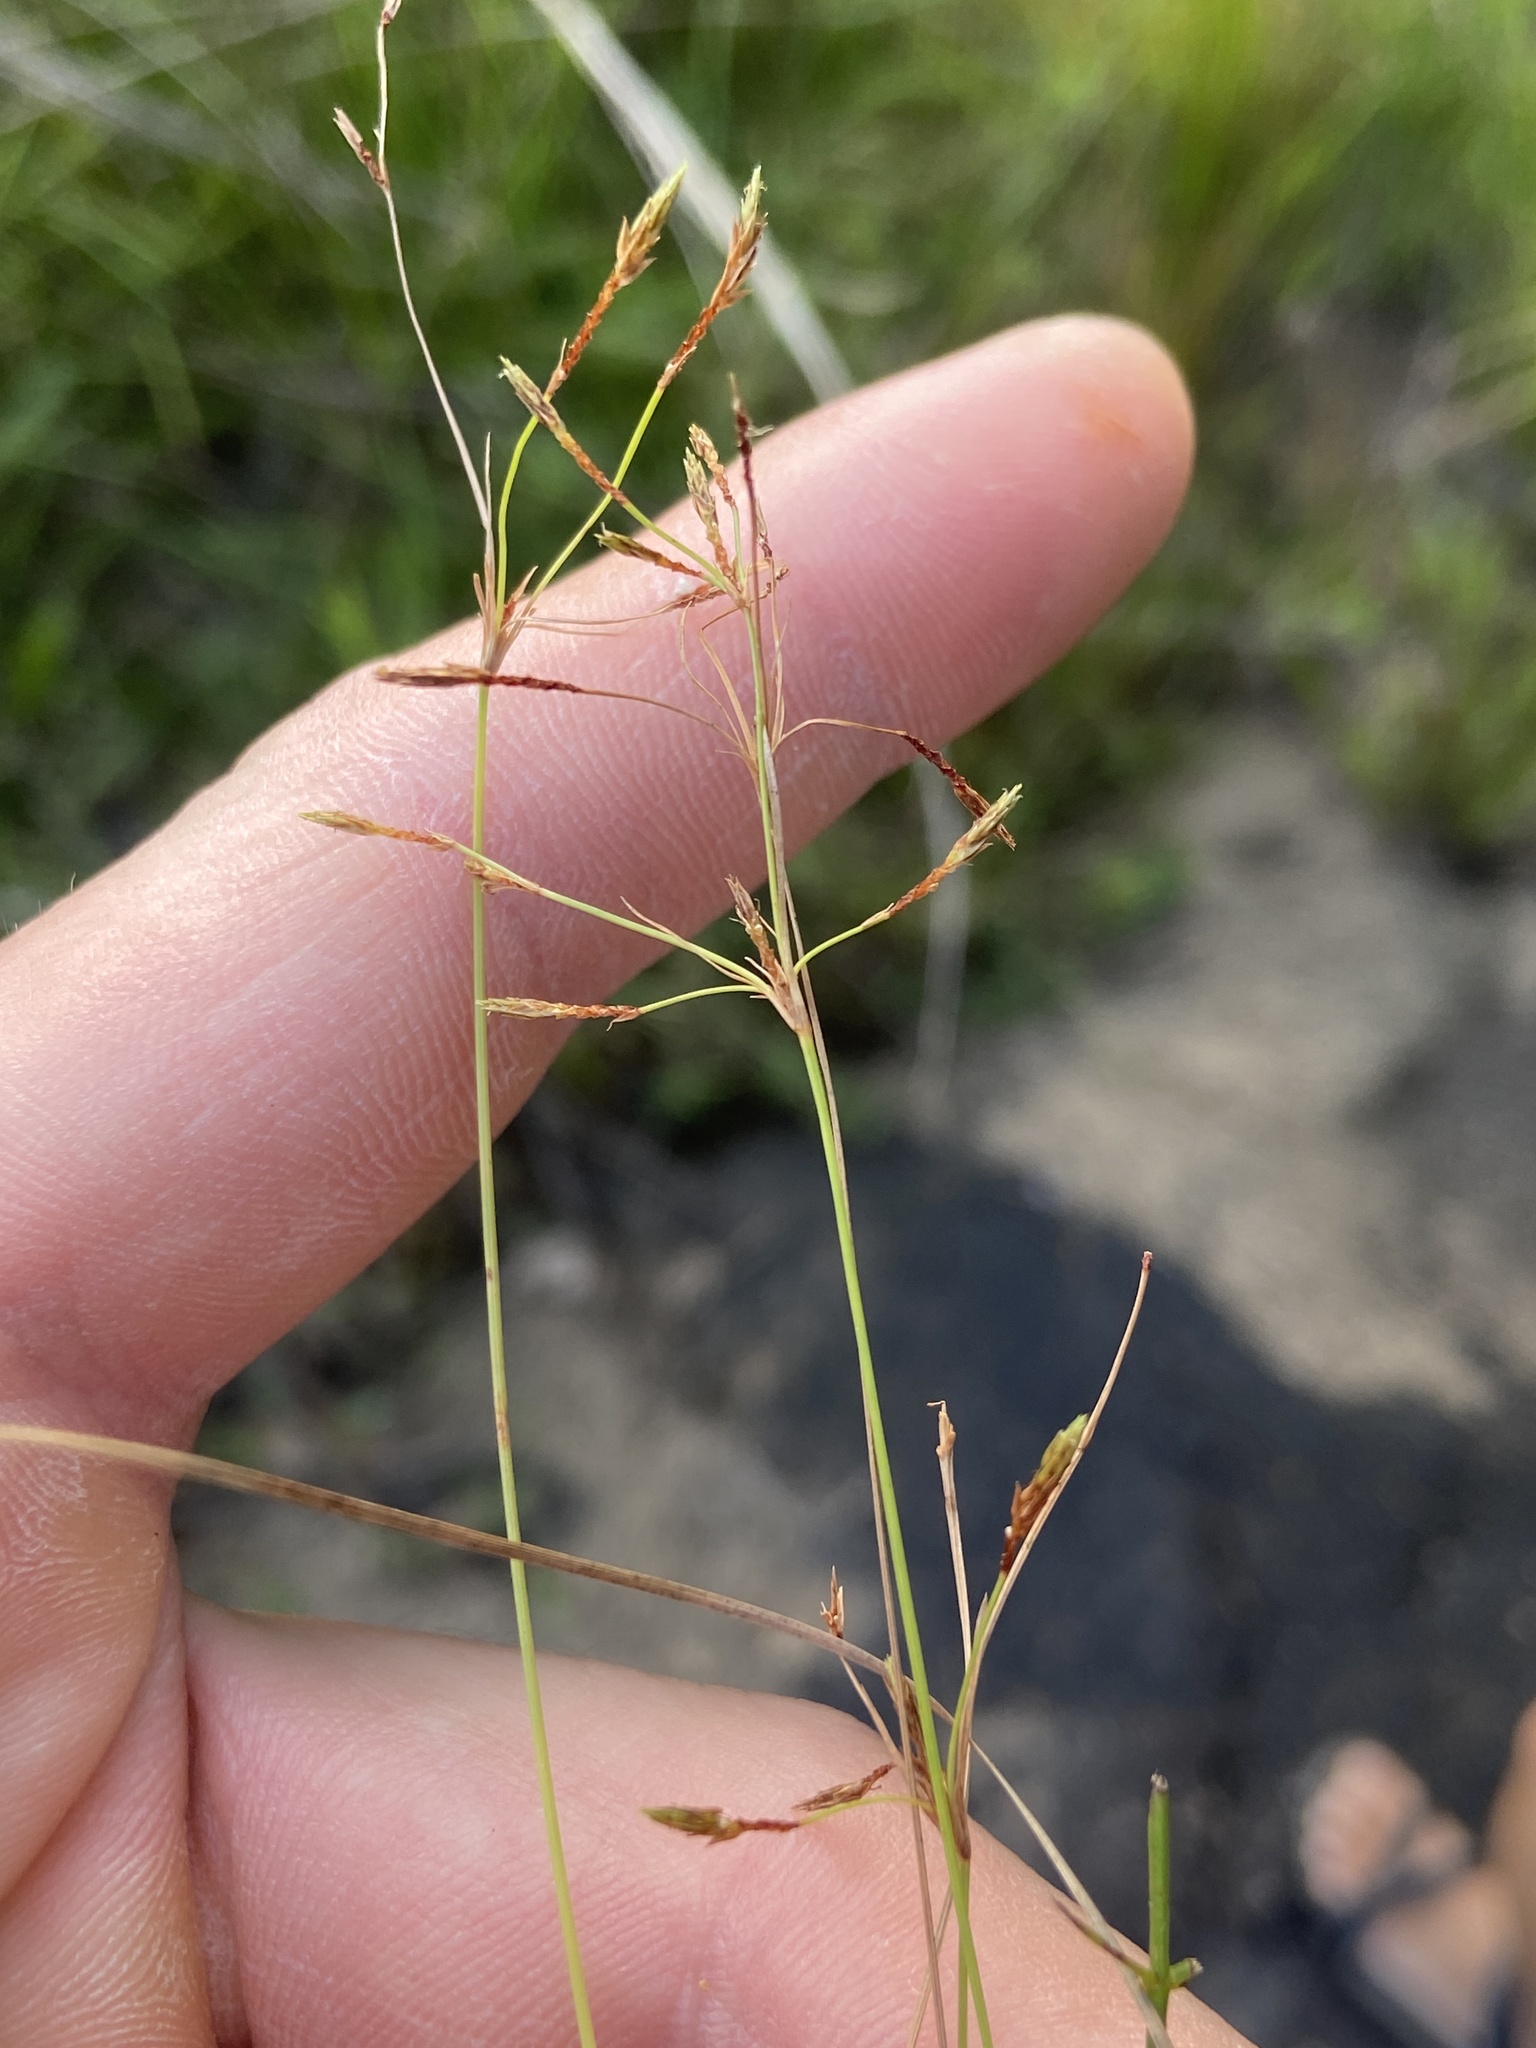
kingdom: Plantae
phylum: Tracheophyta
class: Liliopsida
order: Poales
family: Cyperaceae
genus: Fimbristylis
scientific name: Fimbristylis autumnalis
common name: Slender fimbristylis
